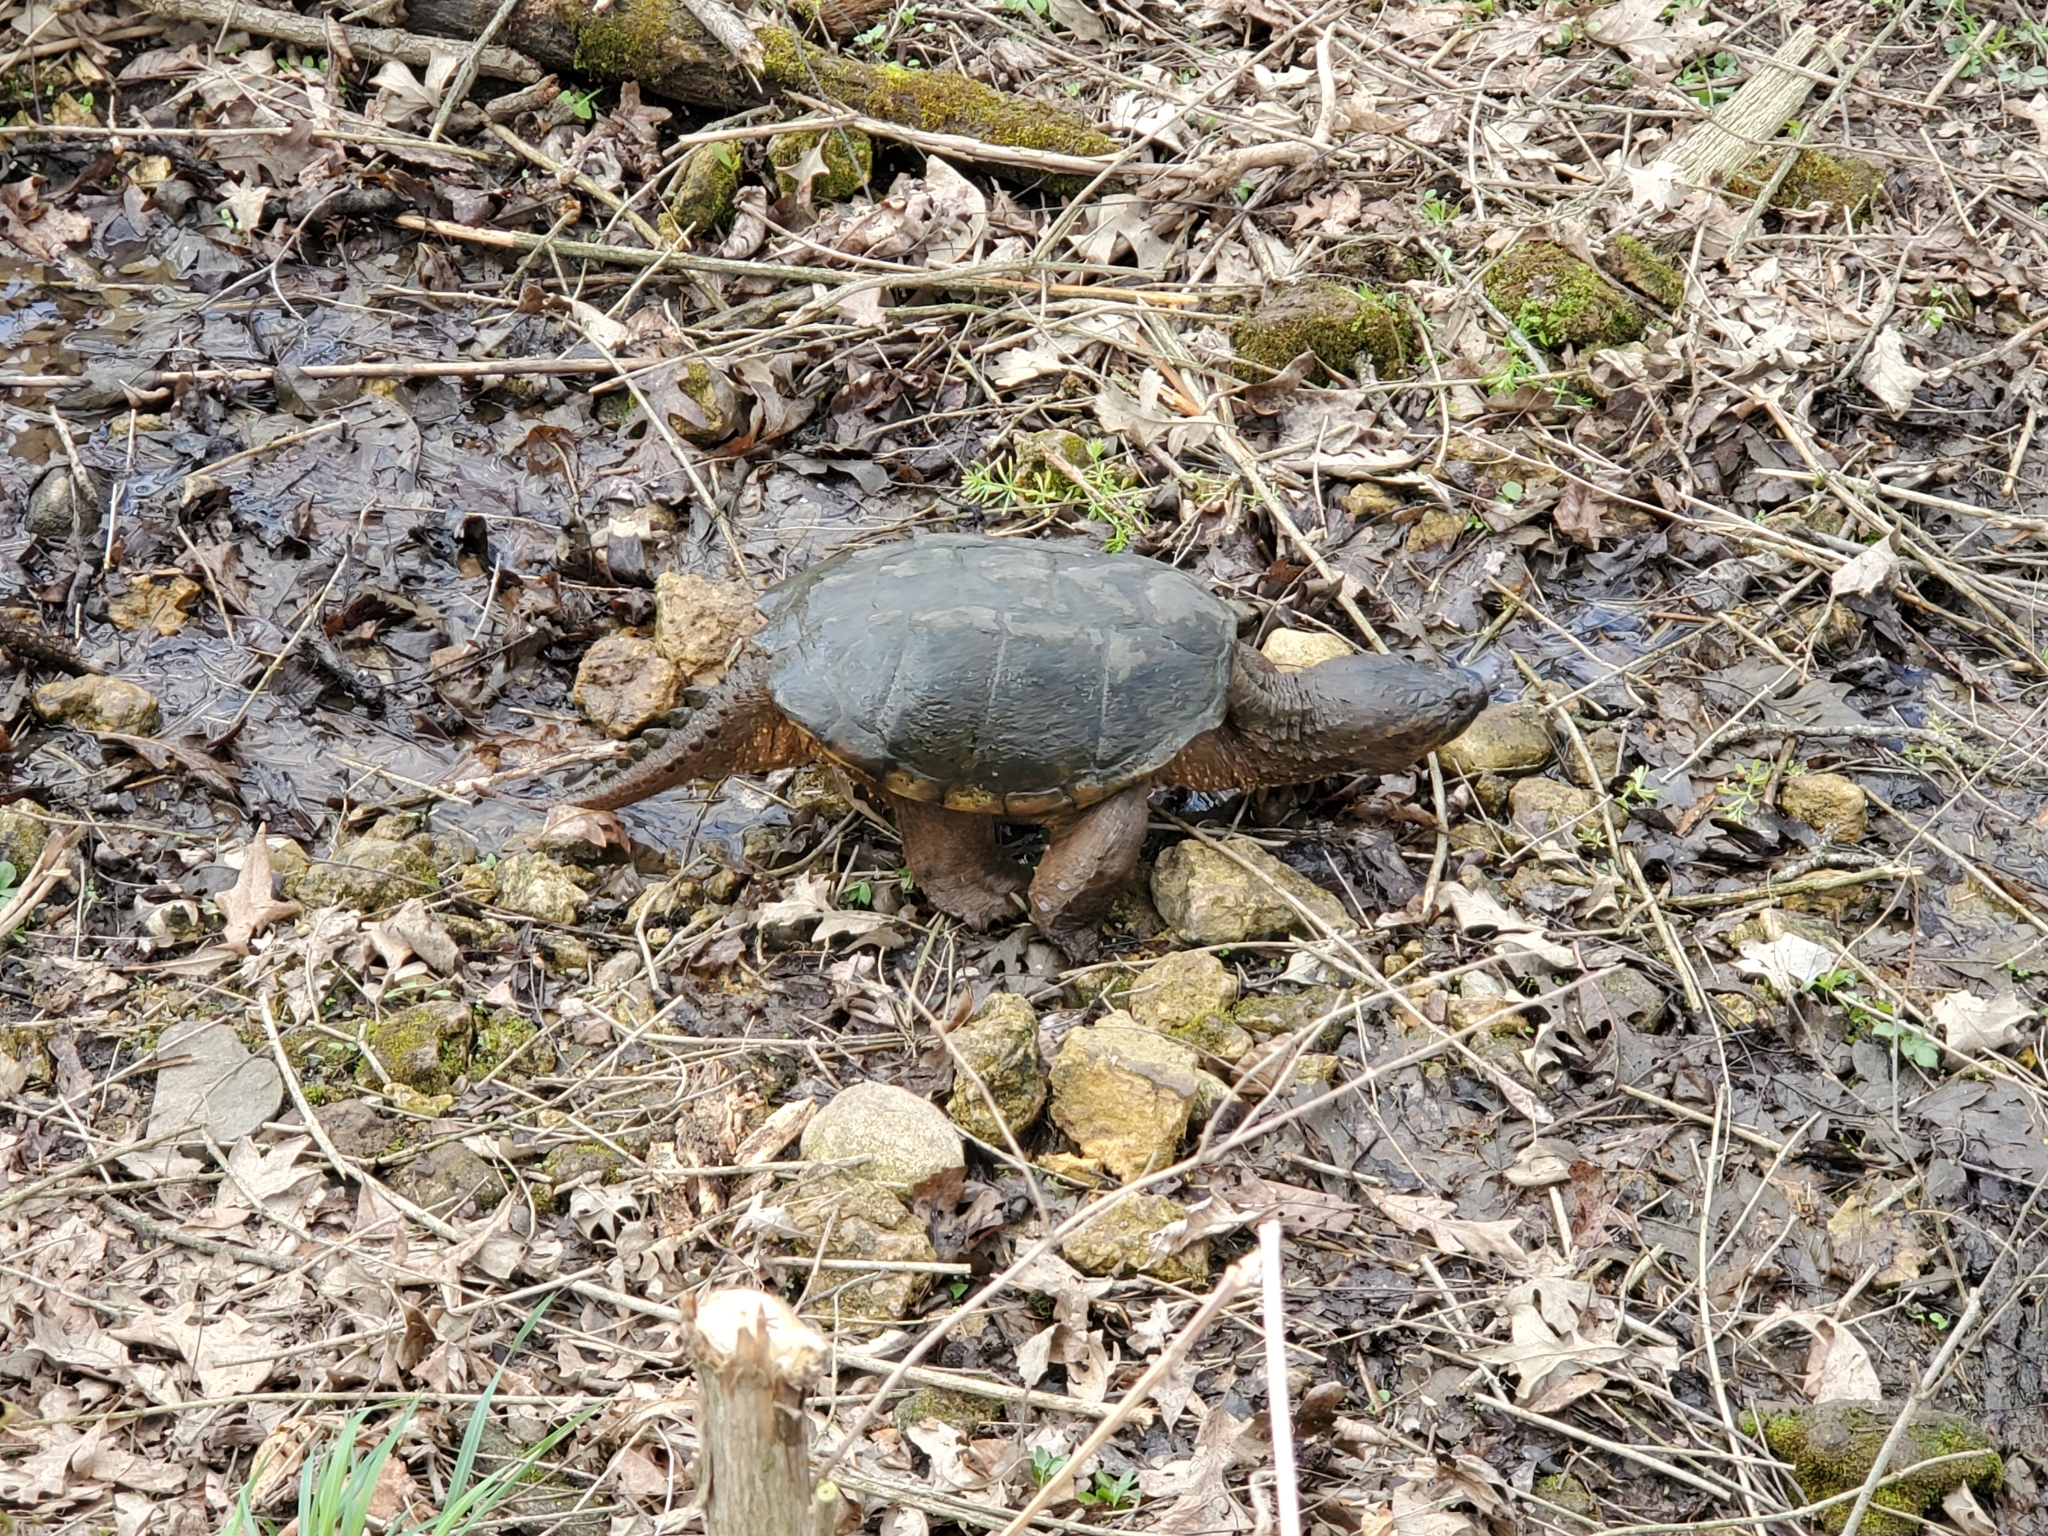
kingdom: Animalia
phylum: Chordata
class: Testudines
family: Chelydridae
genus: Chelydra
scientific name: Chelydra serpentina
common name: Common snapping turtle
